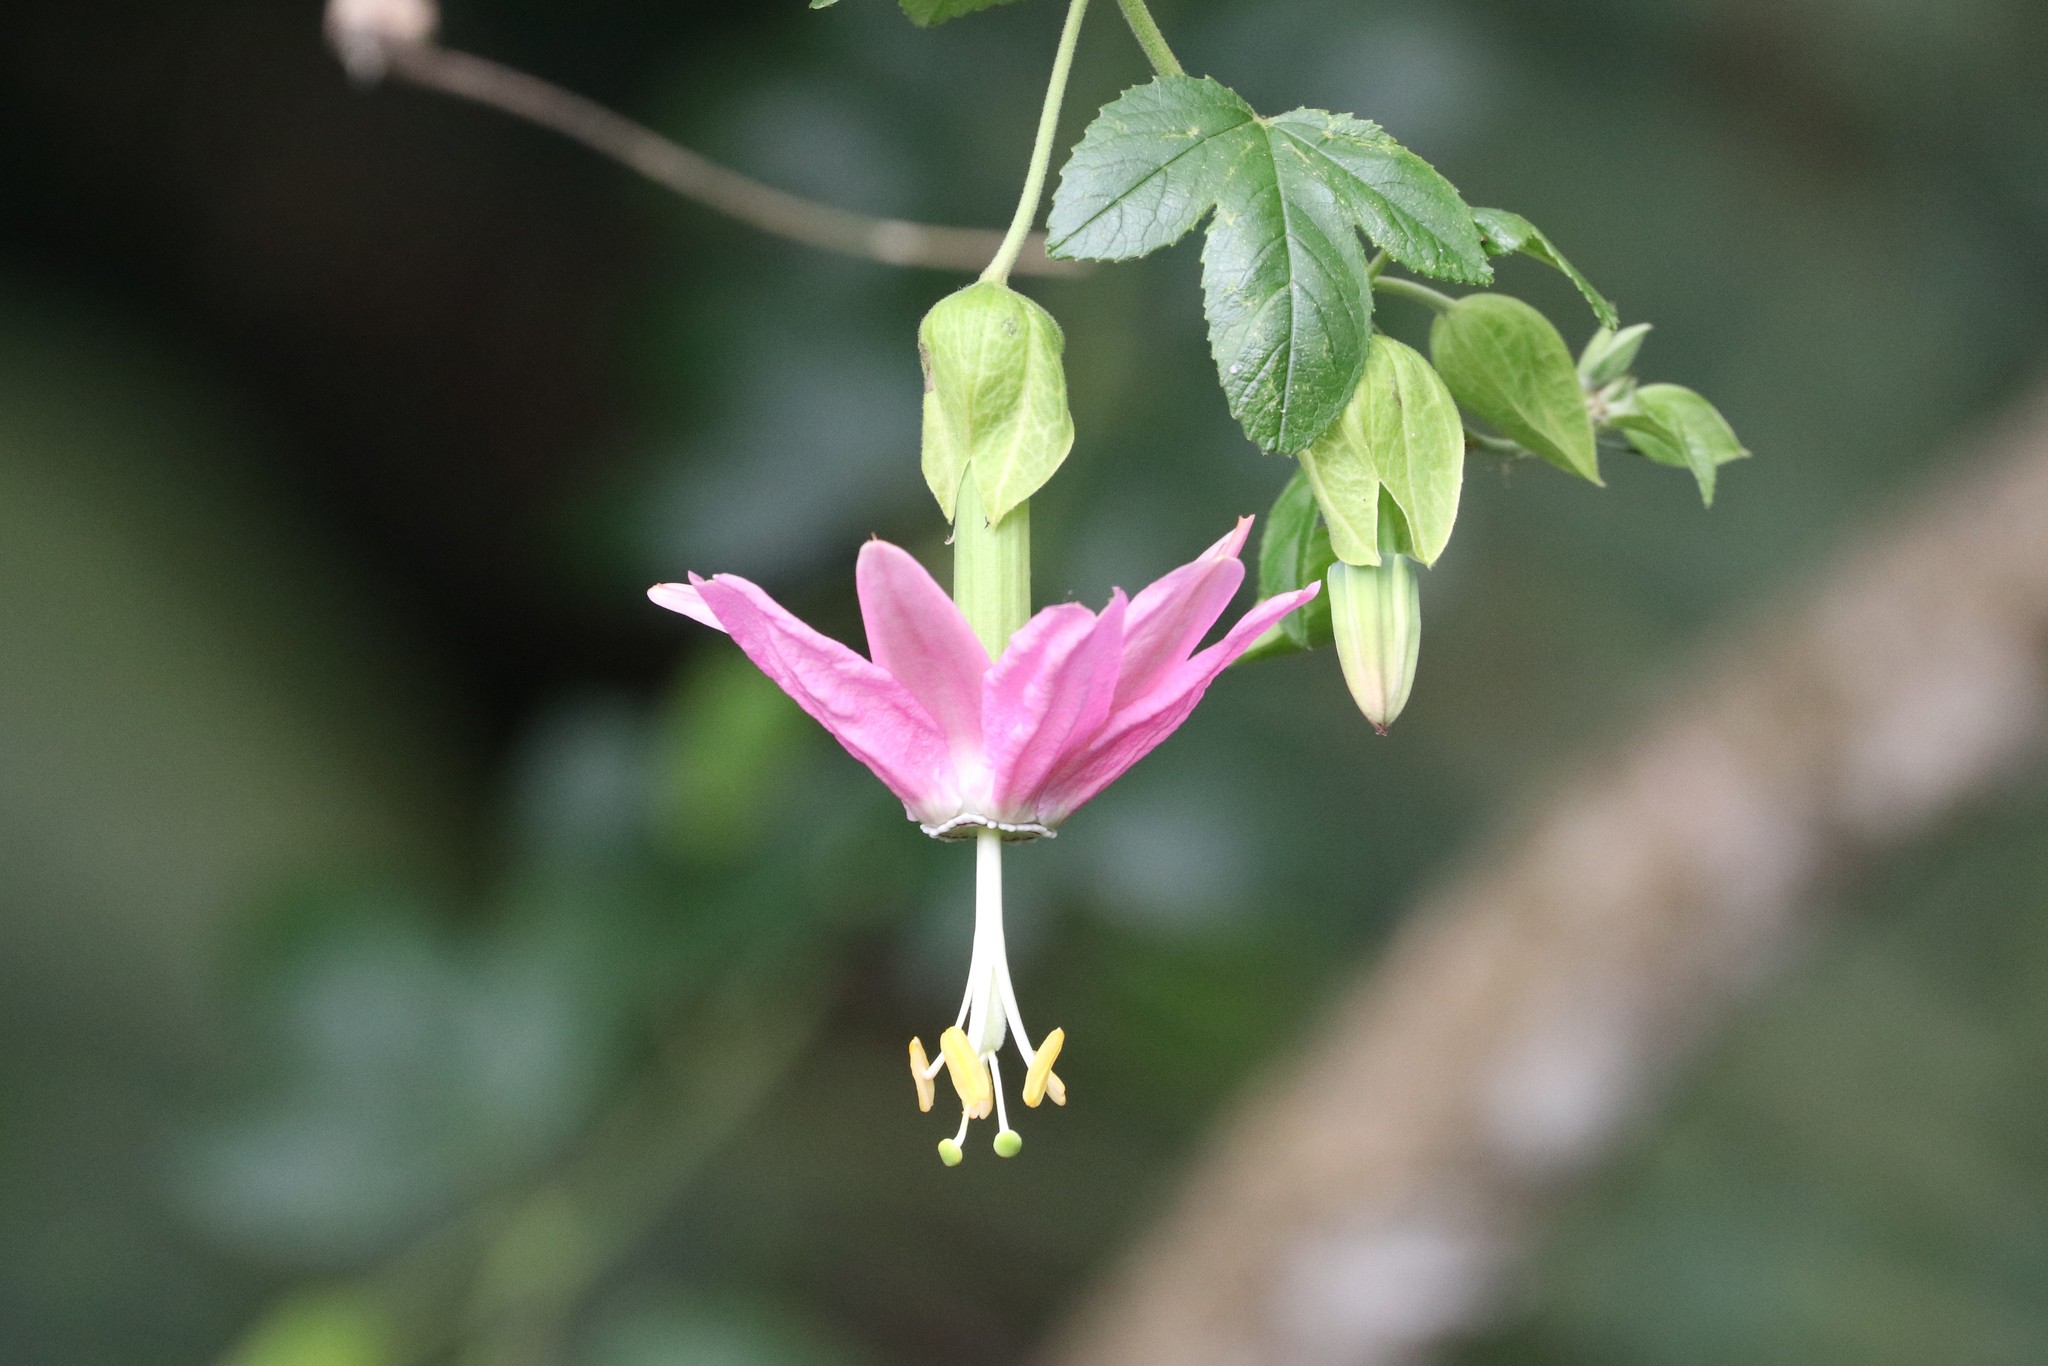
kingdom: Plantae
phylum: Tracheophyta
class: Magnoliopsida
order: Malpighiales
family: Passifloraceae
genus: Passiflora
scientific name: Passiflora tarminiana
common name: Banana poka
